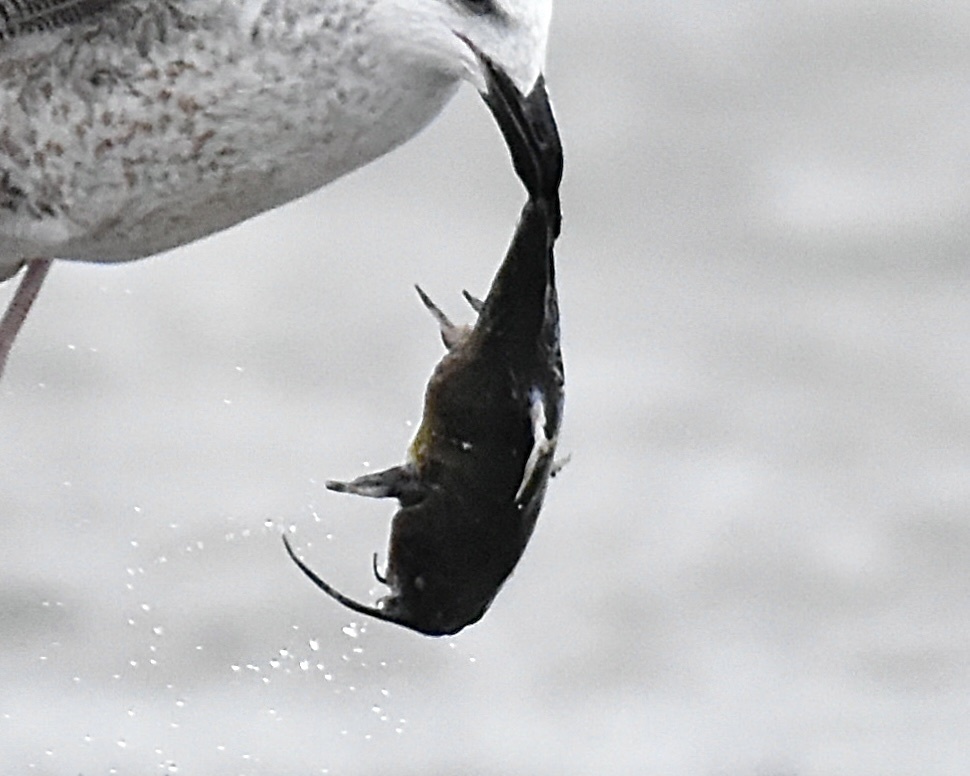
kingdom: Animalia
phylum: Chordata
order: Siluriformes
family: Ictaluridae
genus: Ameiurus
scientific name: Ameiurus nebulosus
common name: Brown bullhead
